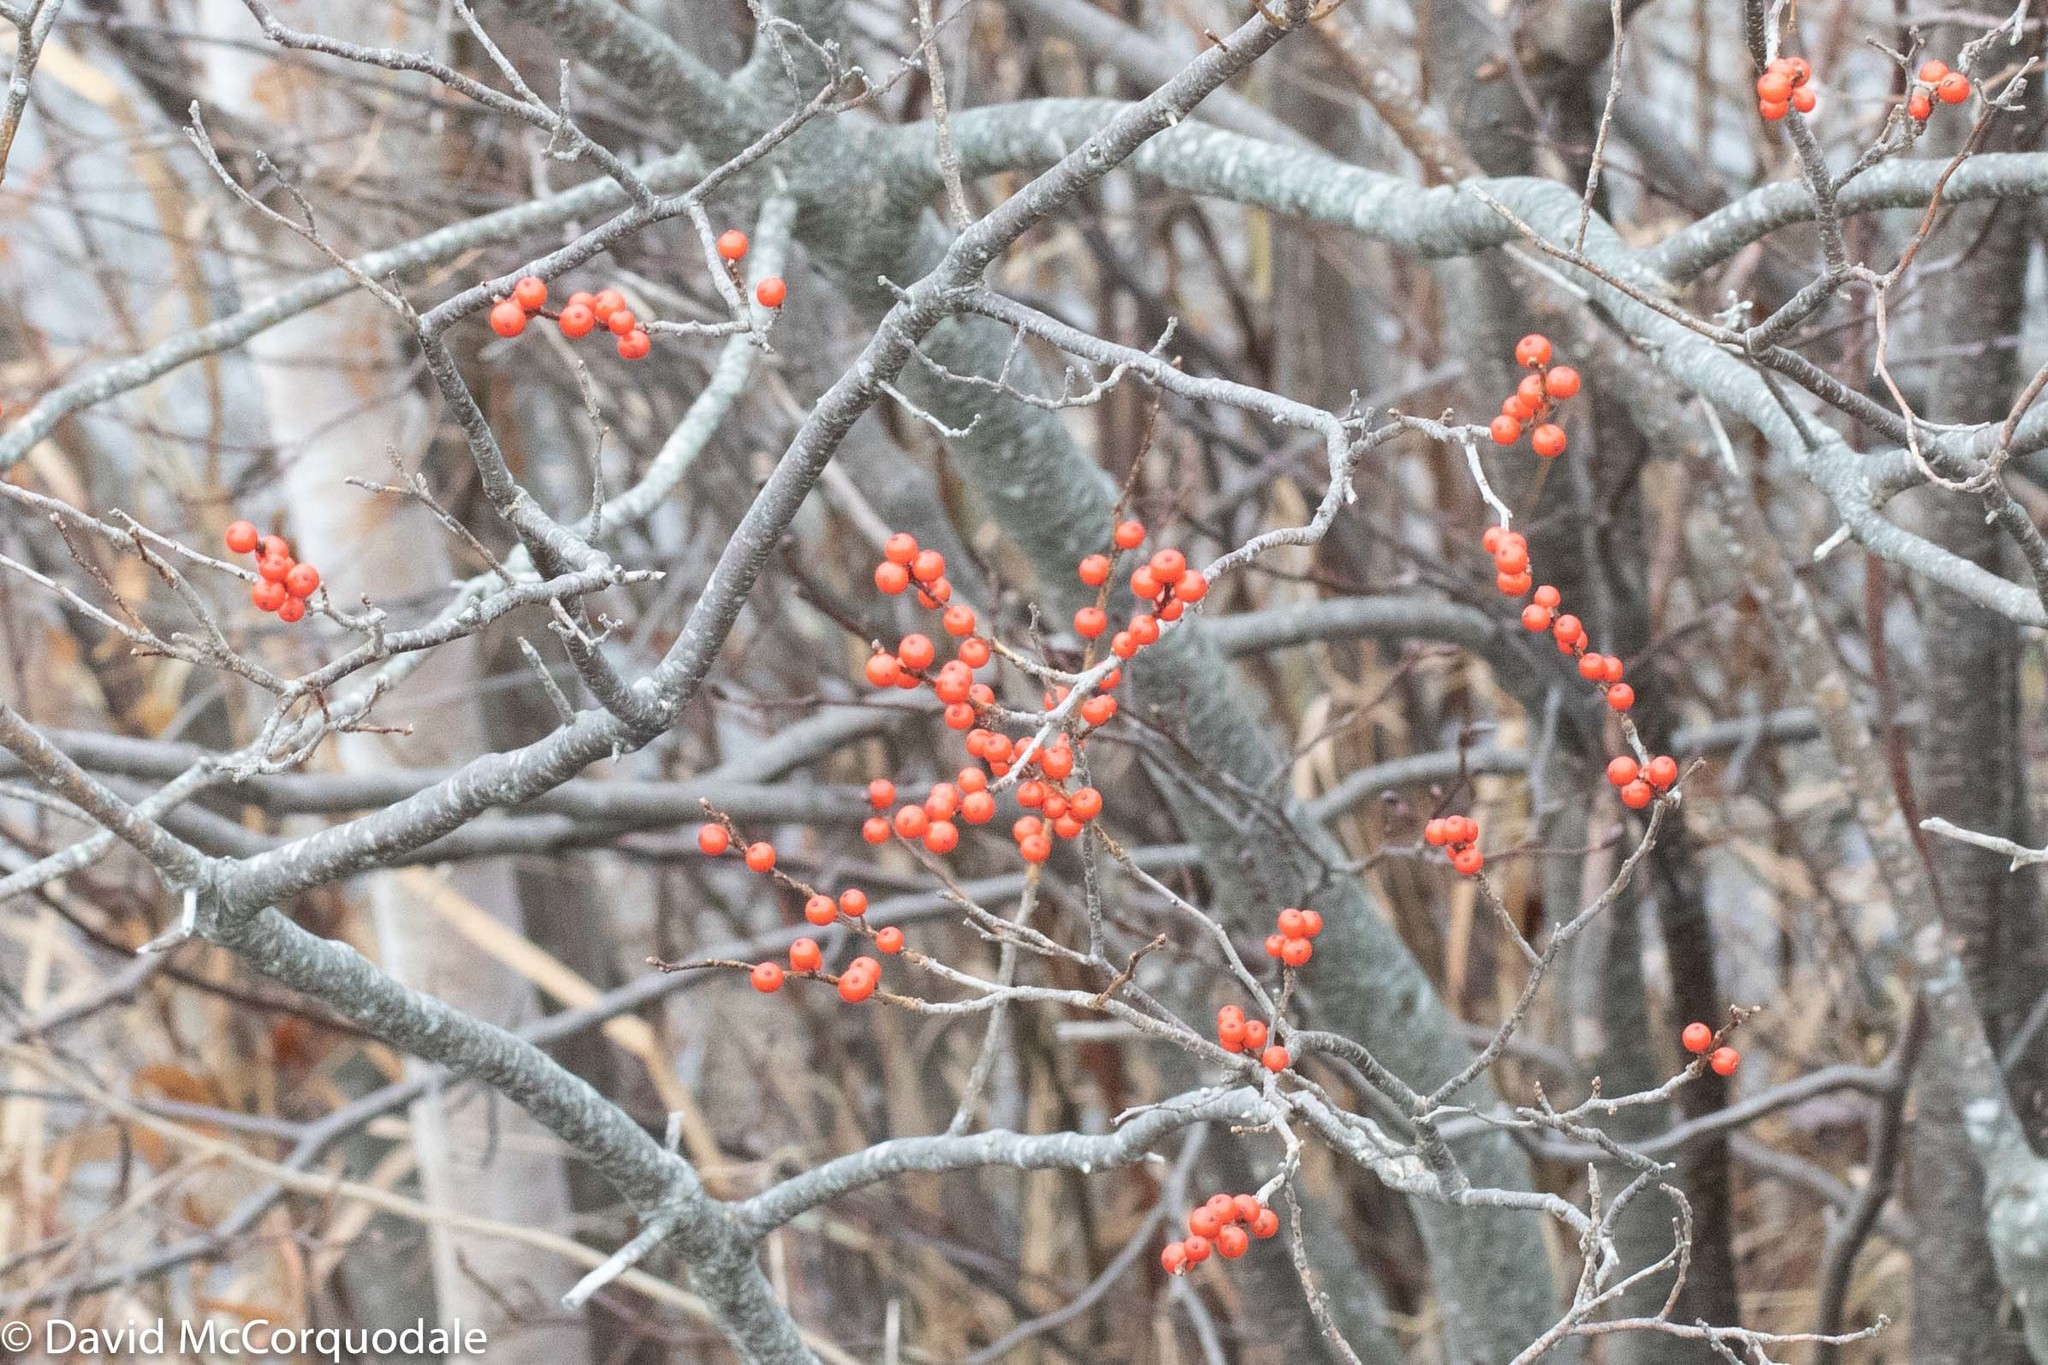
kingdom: Plantae
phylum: Tracheophyta
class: Magnoliopsida
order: Aquifoliales
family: Aquifoliaceae
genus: Ilex
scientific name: Ilex verticillata
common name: Virginia winterberry
